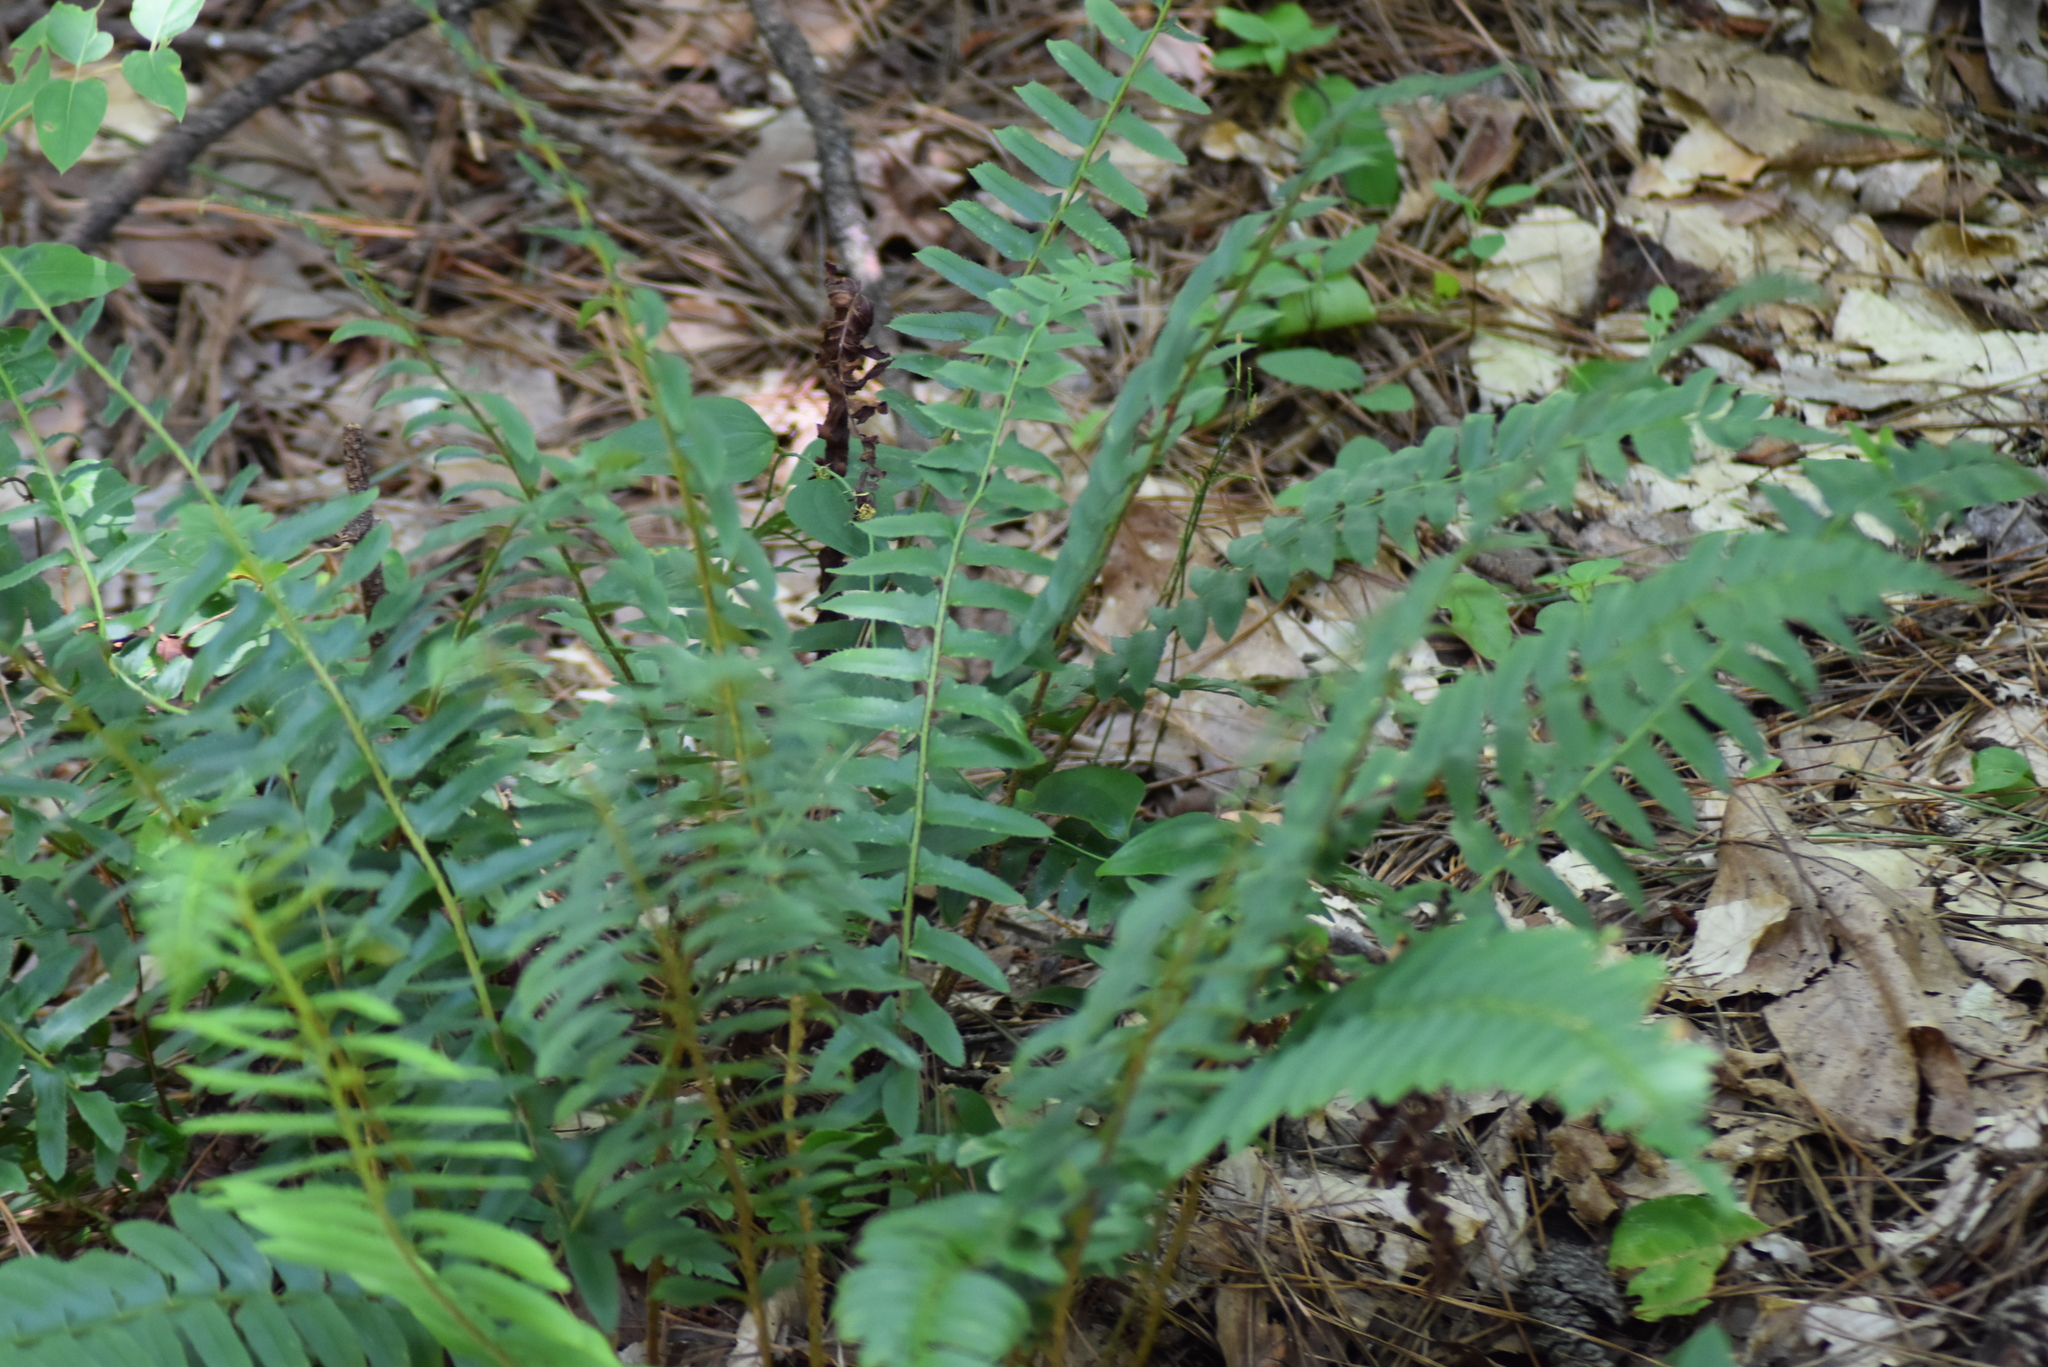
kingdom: Plantae
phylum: Tracheophyta
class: Polypodiopsida
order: Polypodiales
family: Dryopteridaceae
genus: Polystichum
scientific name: Polystichum acrostichoides
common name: Christmas fern
